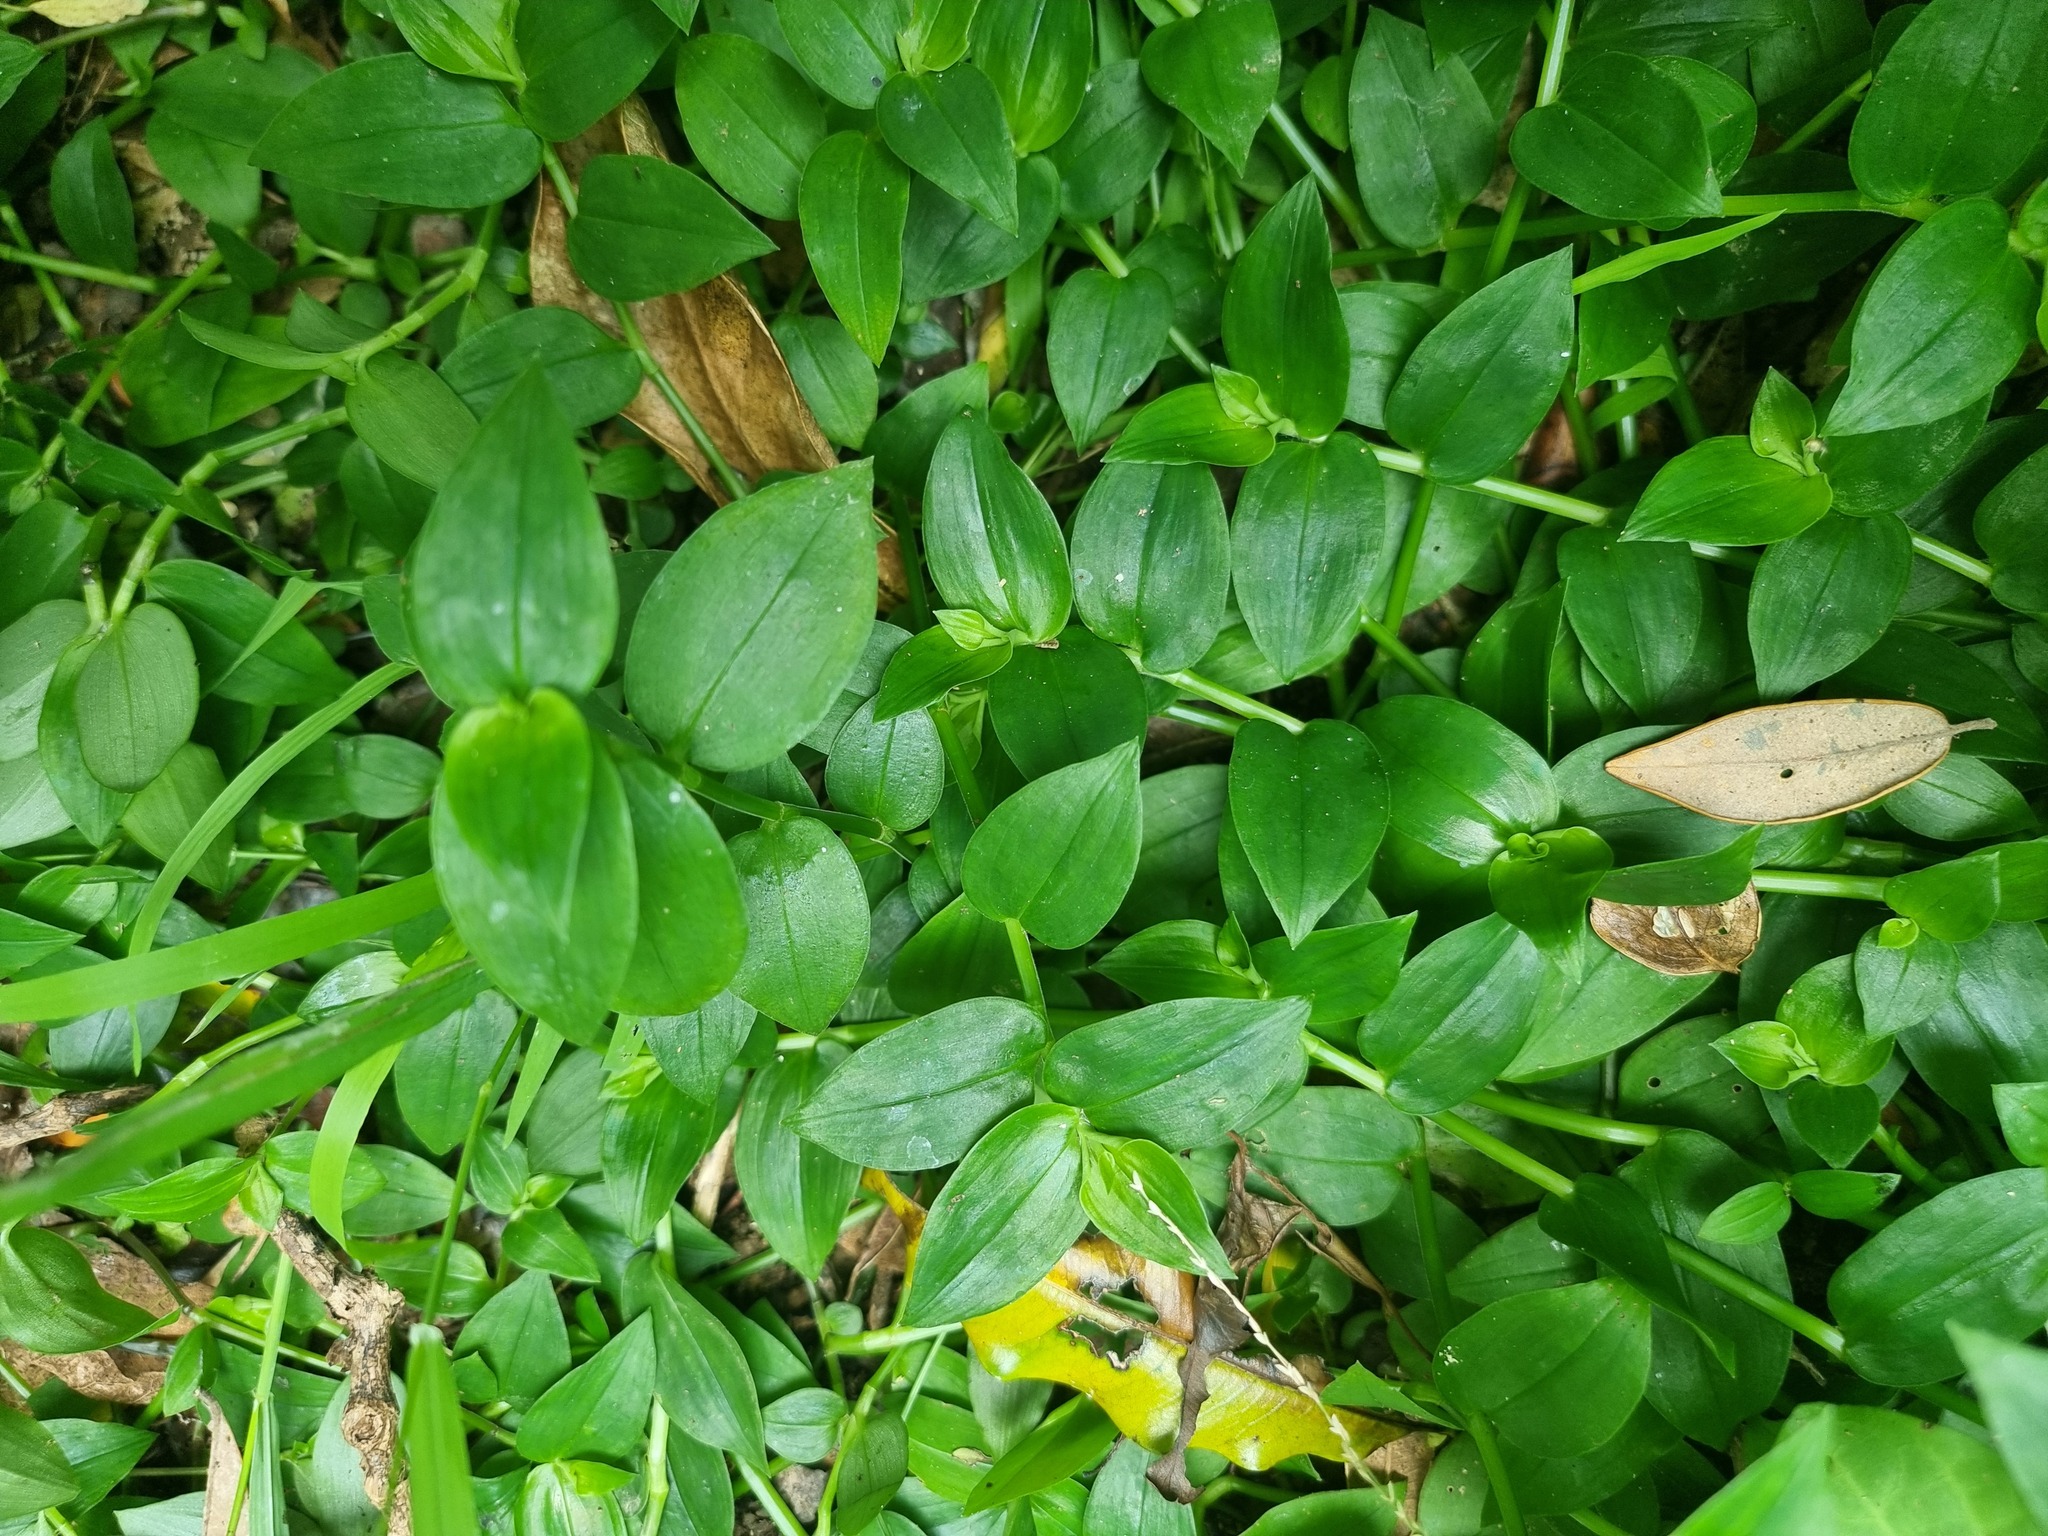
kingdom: Plantae
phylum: Tracheophyta
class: Liliopsida
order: Commelinales
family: Commelinaceae
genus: Tradescantia
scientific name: Tradescantia fluminensis
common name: Wandering-jew
